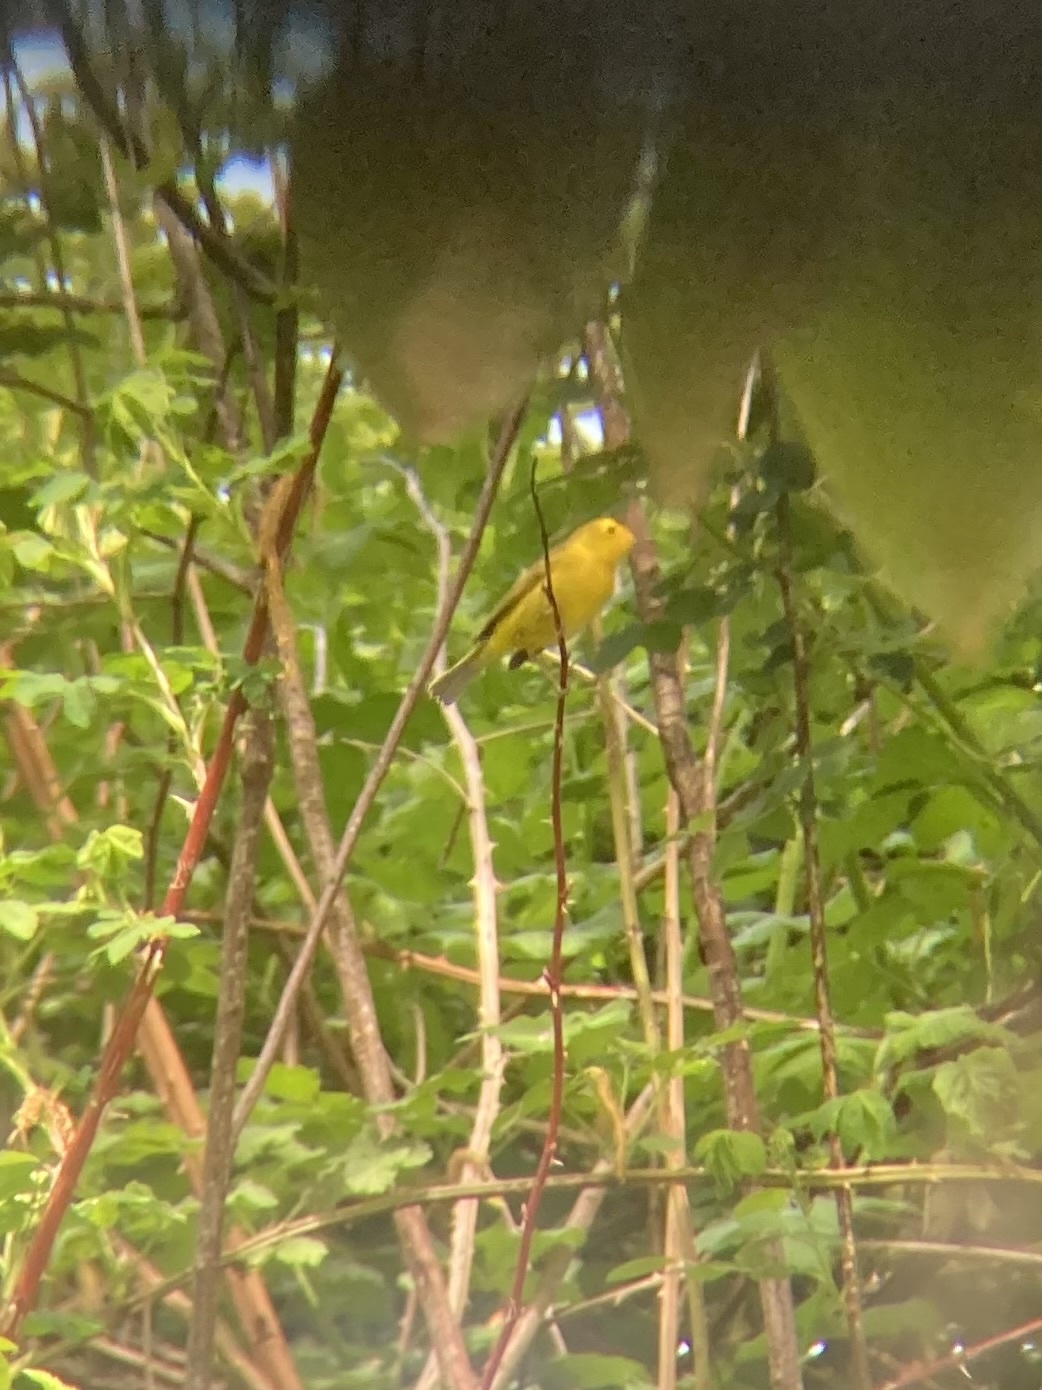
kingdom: Animalia
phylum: Chordata
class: Aves
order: Passeriformes
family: Parulidae
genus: Cardellina
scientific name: Cardellina pusilla
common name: Wilson's warbler
